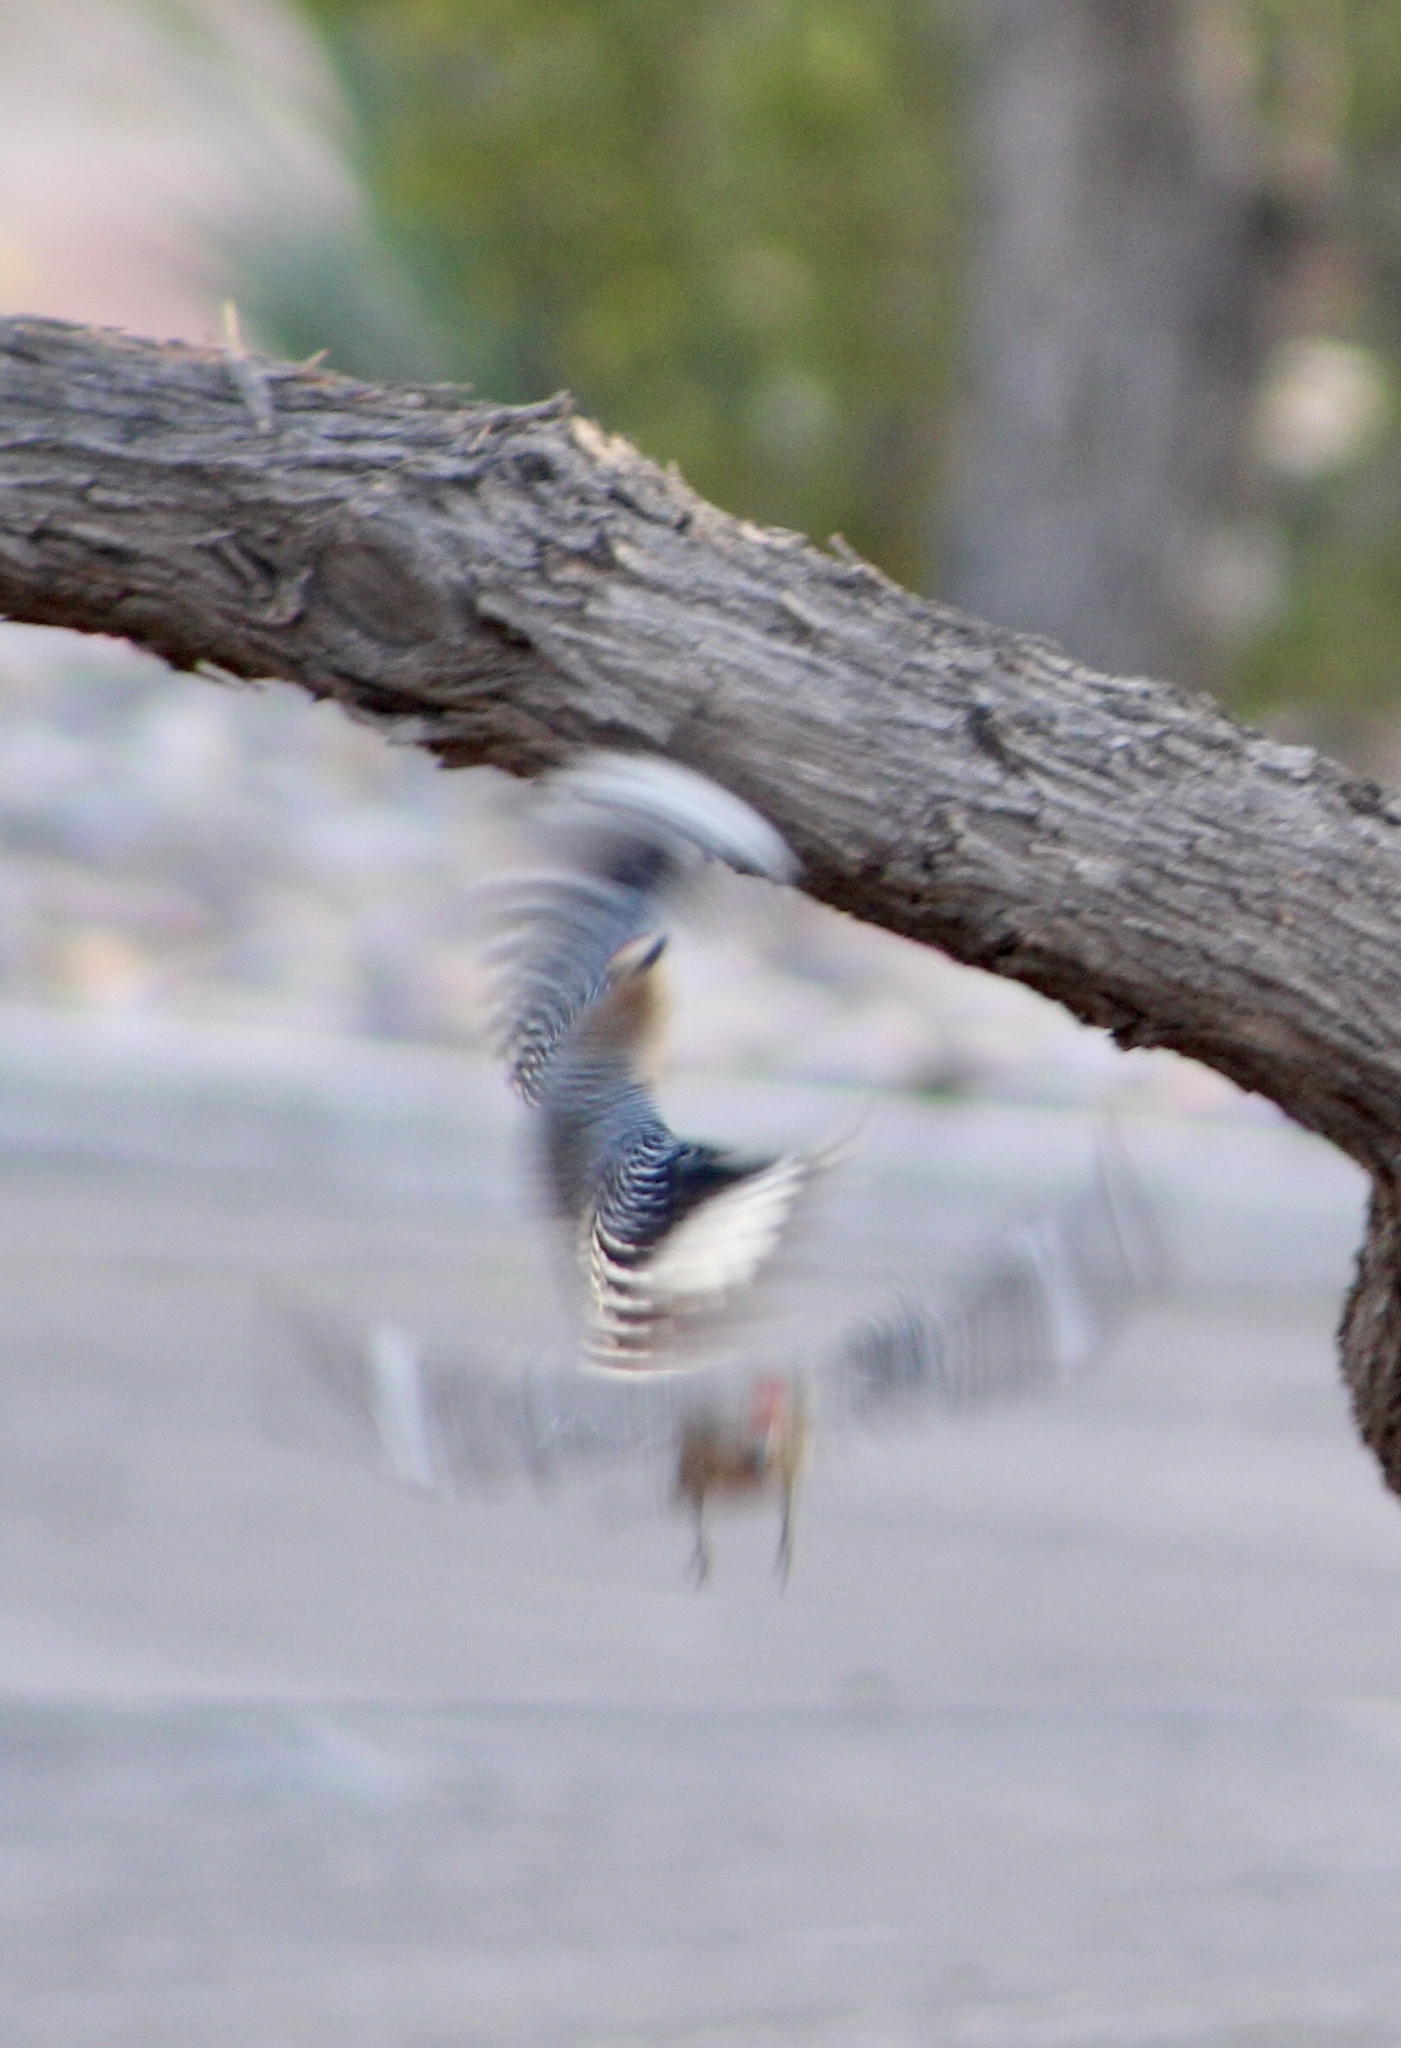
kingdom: Animalia
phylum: Chordata
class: Aves
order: Piciformes
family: Picidae
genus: Melanerpes
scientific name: Melanerpes uropygialis
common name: Gila woodpecker
